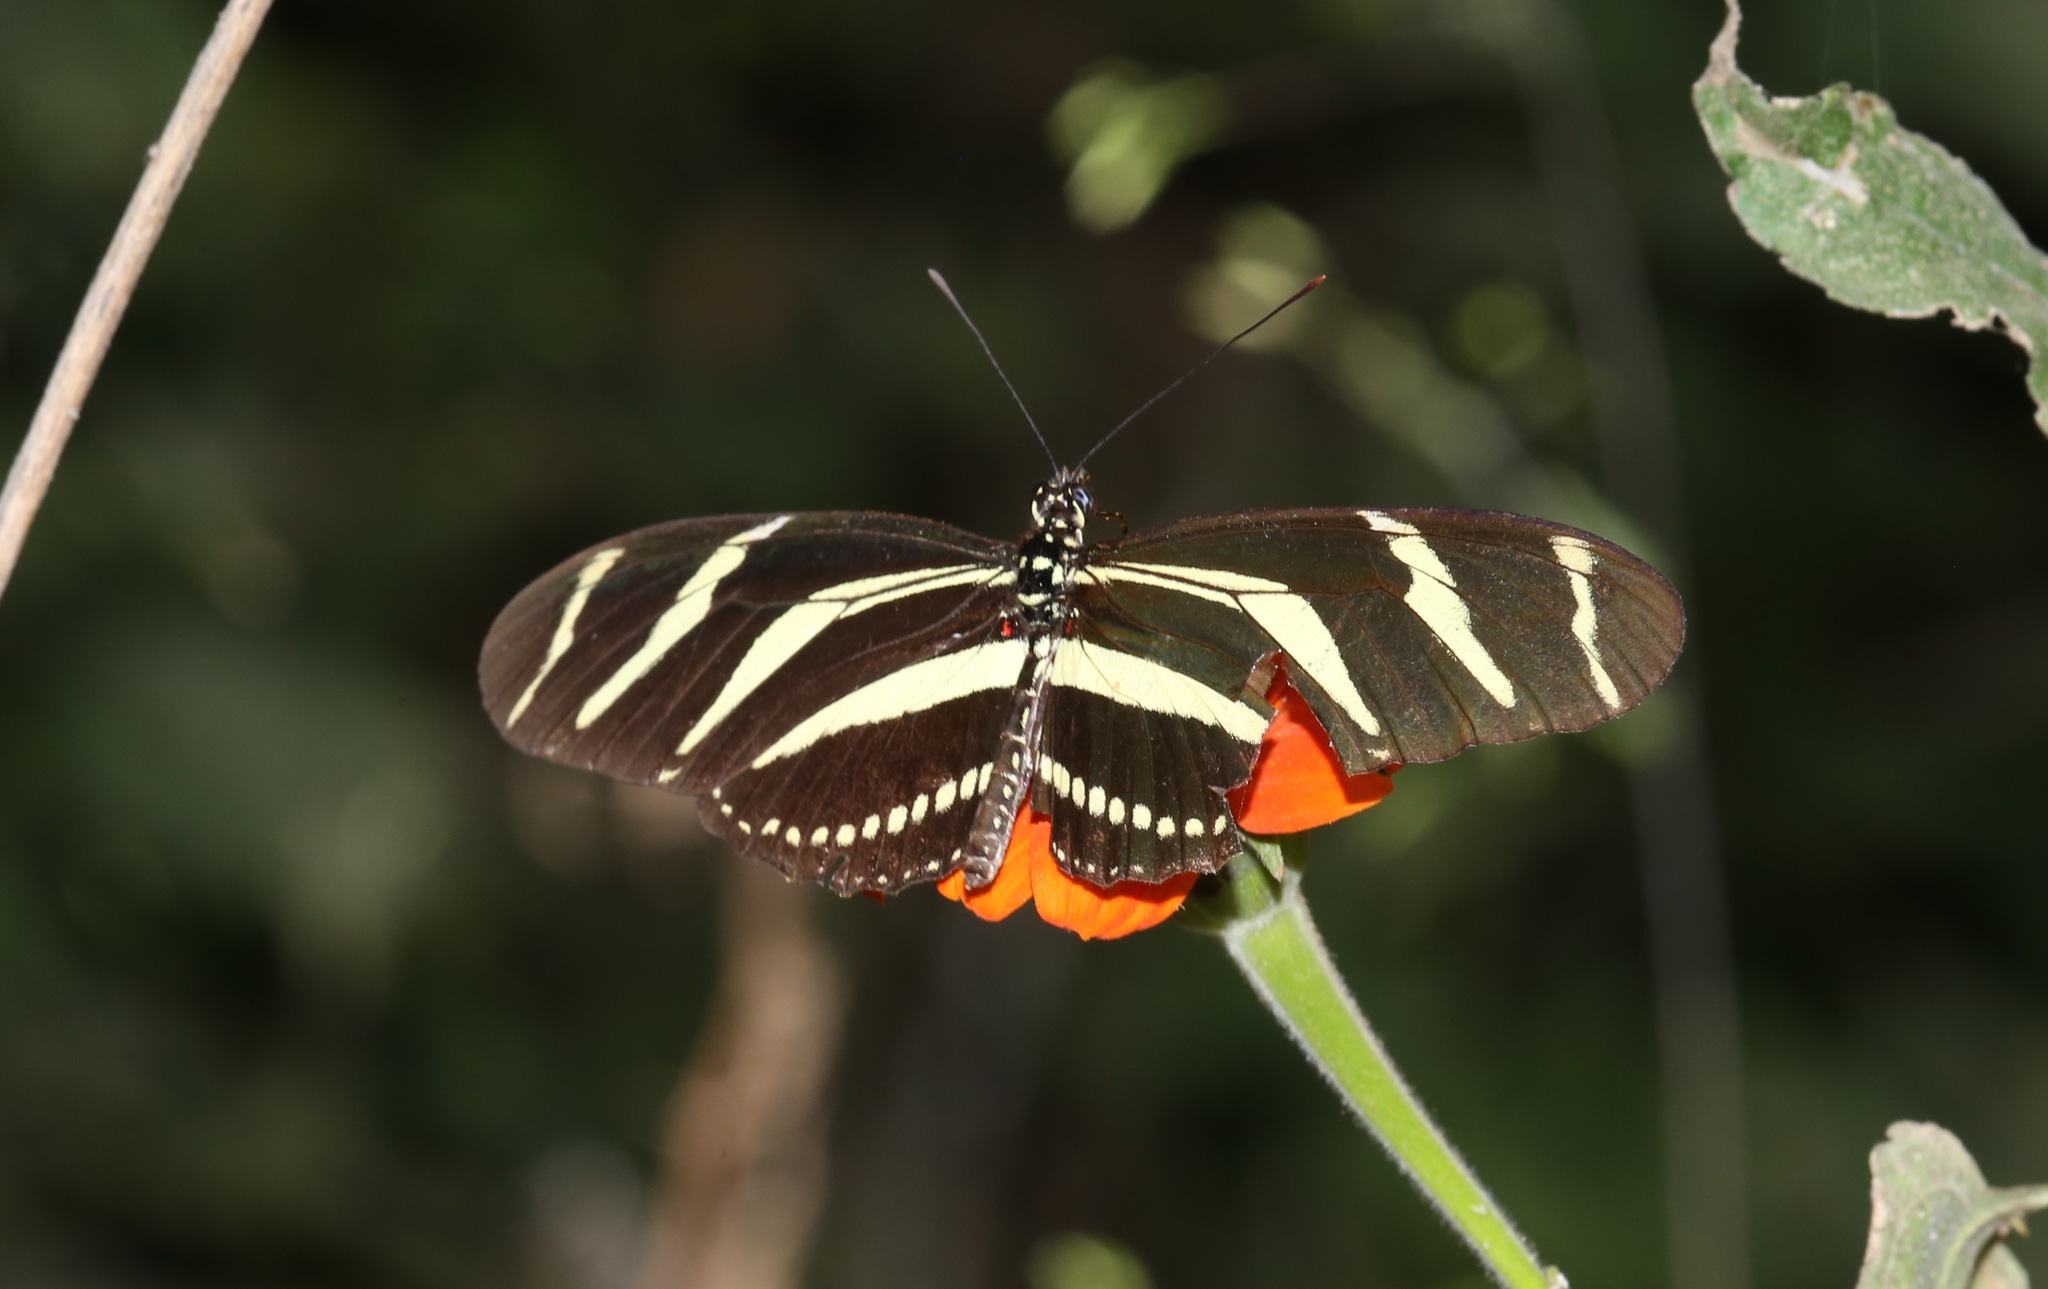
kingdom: Animalia
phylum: Arthropoda
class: Insecta
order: Lepidoptera
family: Nymphalidae
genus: Heliconius
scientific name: Heliconius charithonia
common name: Zebra long wing
